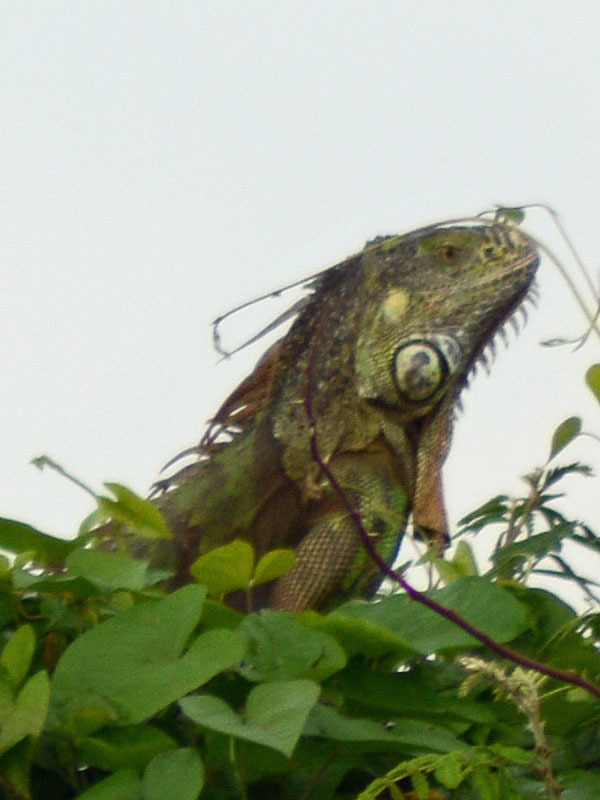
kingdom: Animalia
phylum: Chordata
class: Squamata
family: Iguanidae
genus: Iguana
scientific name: Iguana iguana
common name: Green iguana
